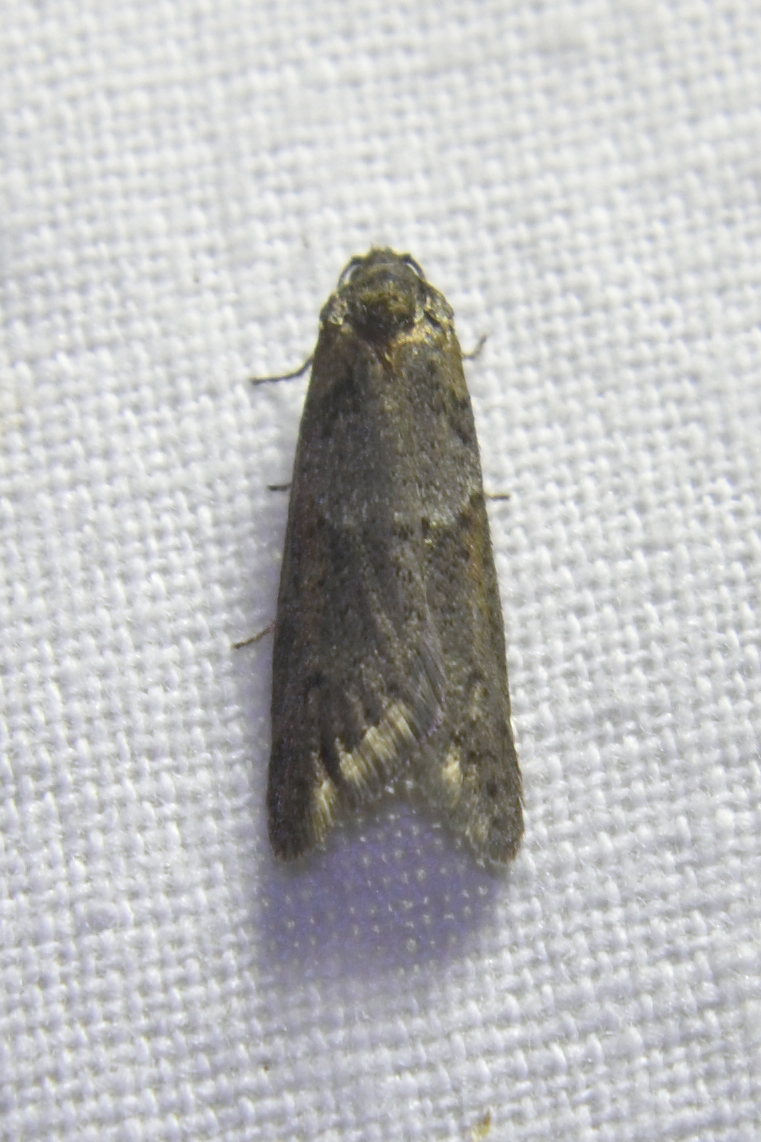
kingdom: Animalia
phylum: Arthropoda
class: Insecta
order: Lepidoptera
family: Tortricidae
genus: Tortricodes
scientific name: Tortricodes alternella
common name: Winter shade
